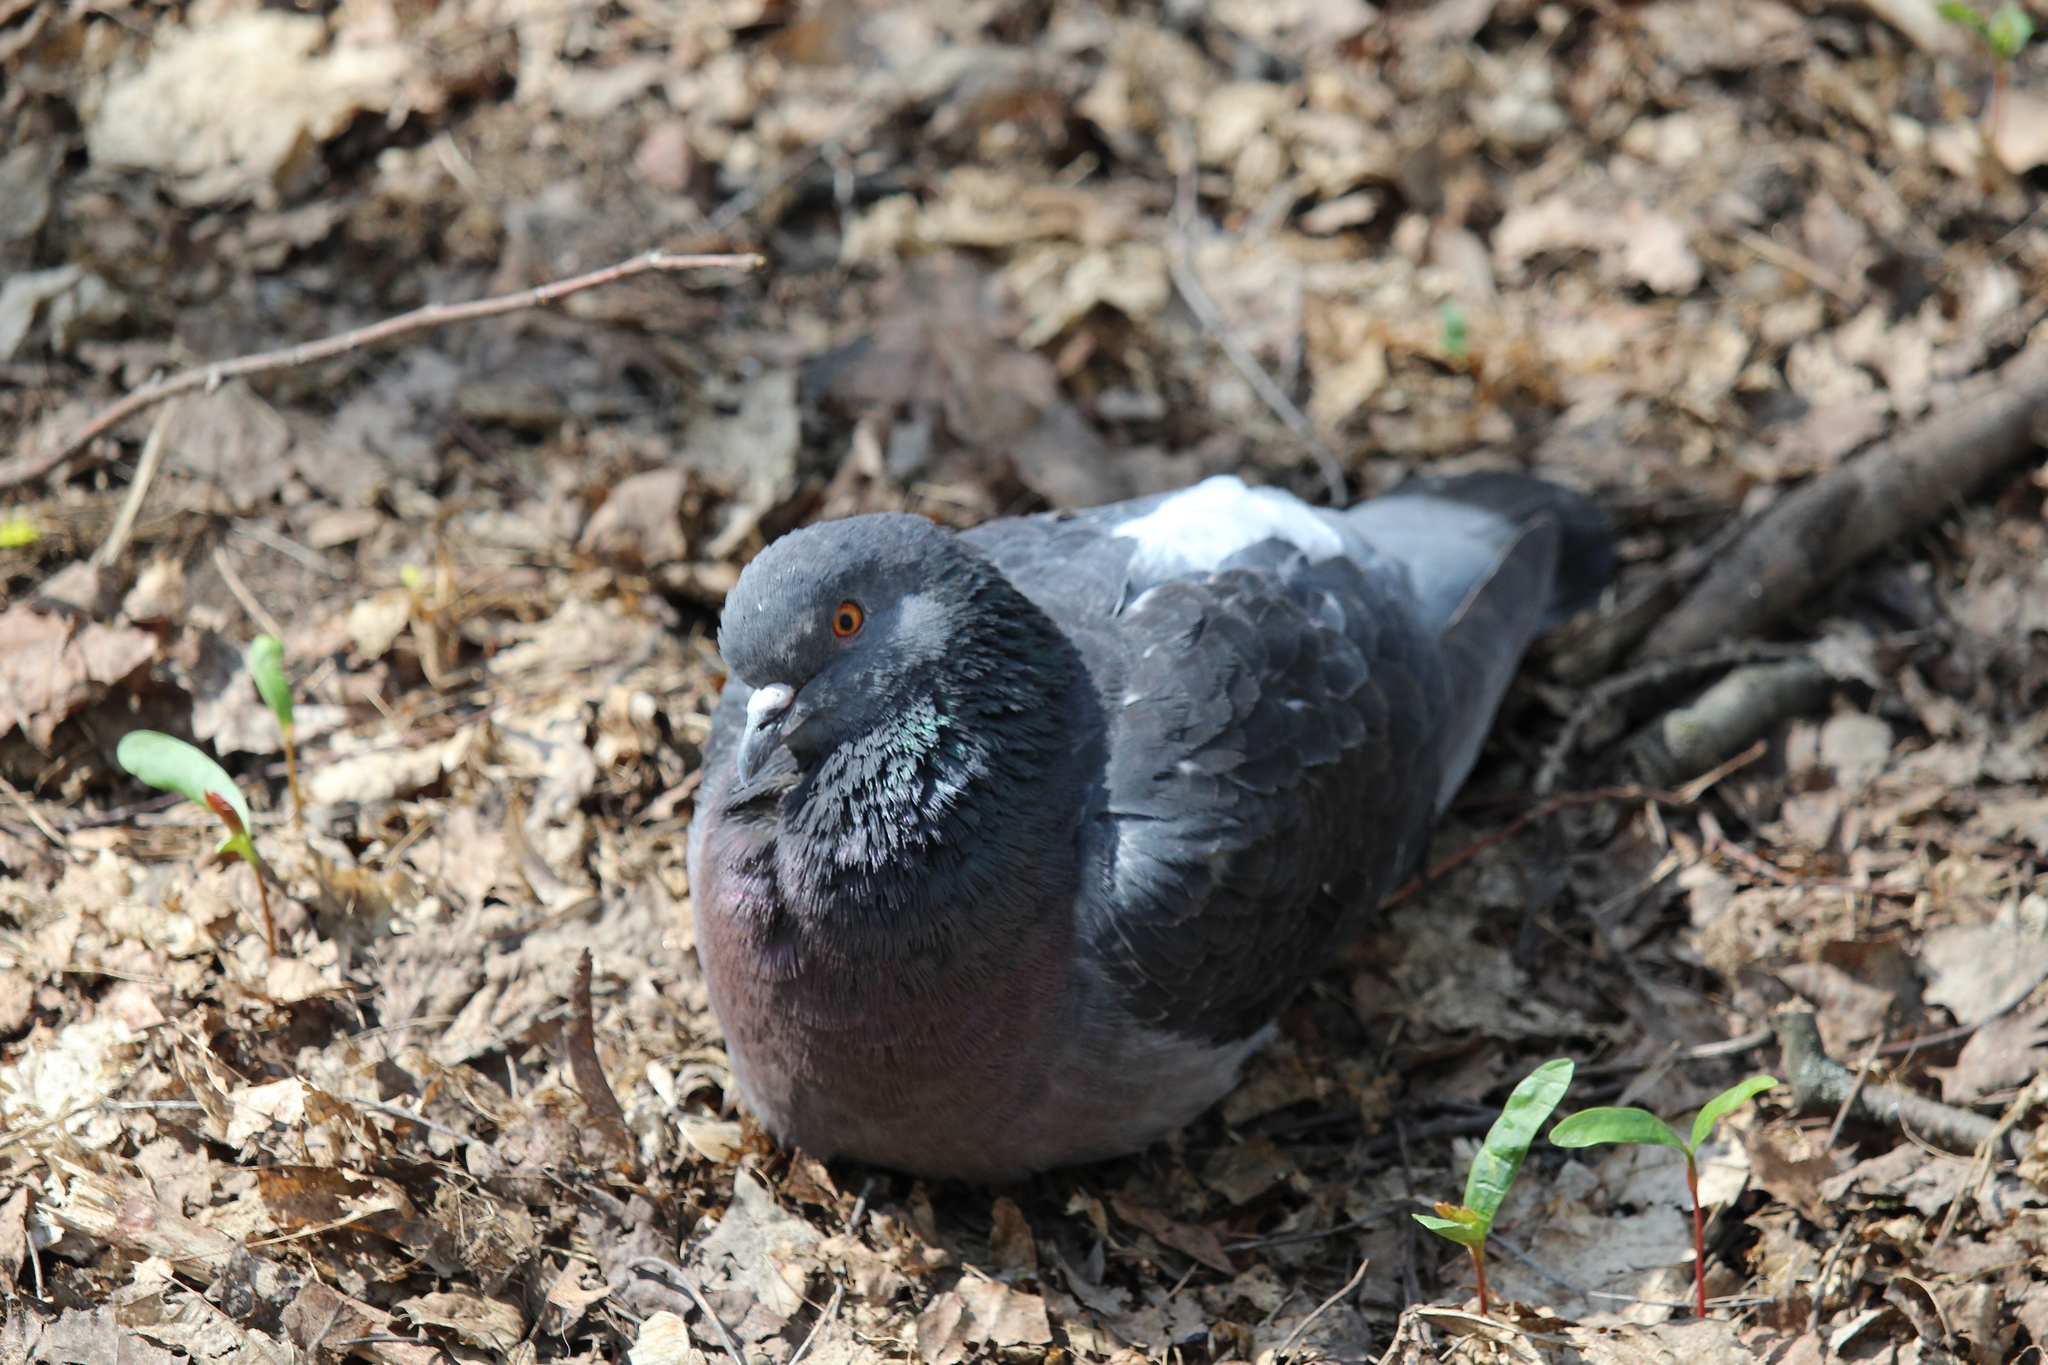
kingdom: Animalia
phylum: Chordata
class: Aves
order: Columbiformes
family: Columbidae
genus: Columba
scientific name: Columba livia
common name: Rock pigeon
